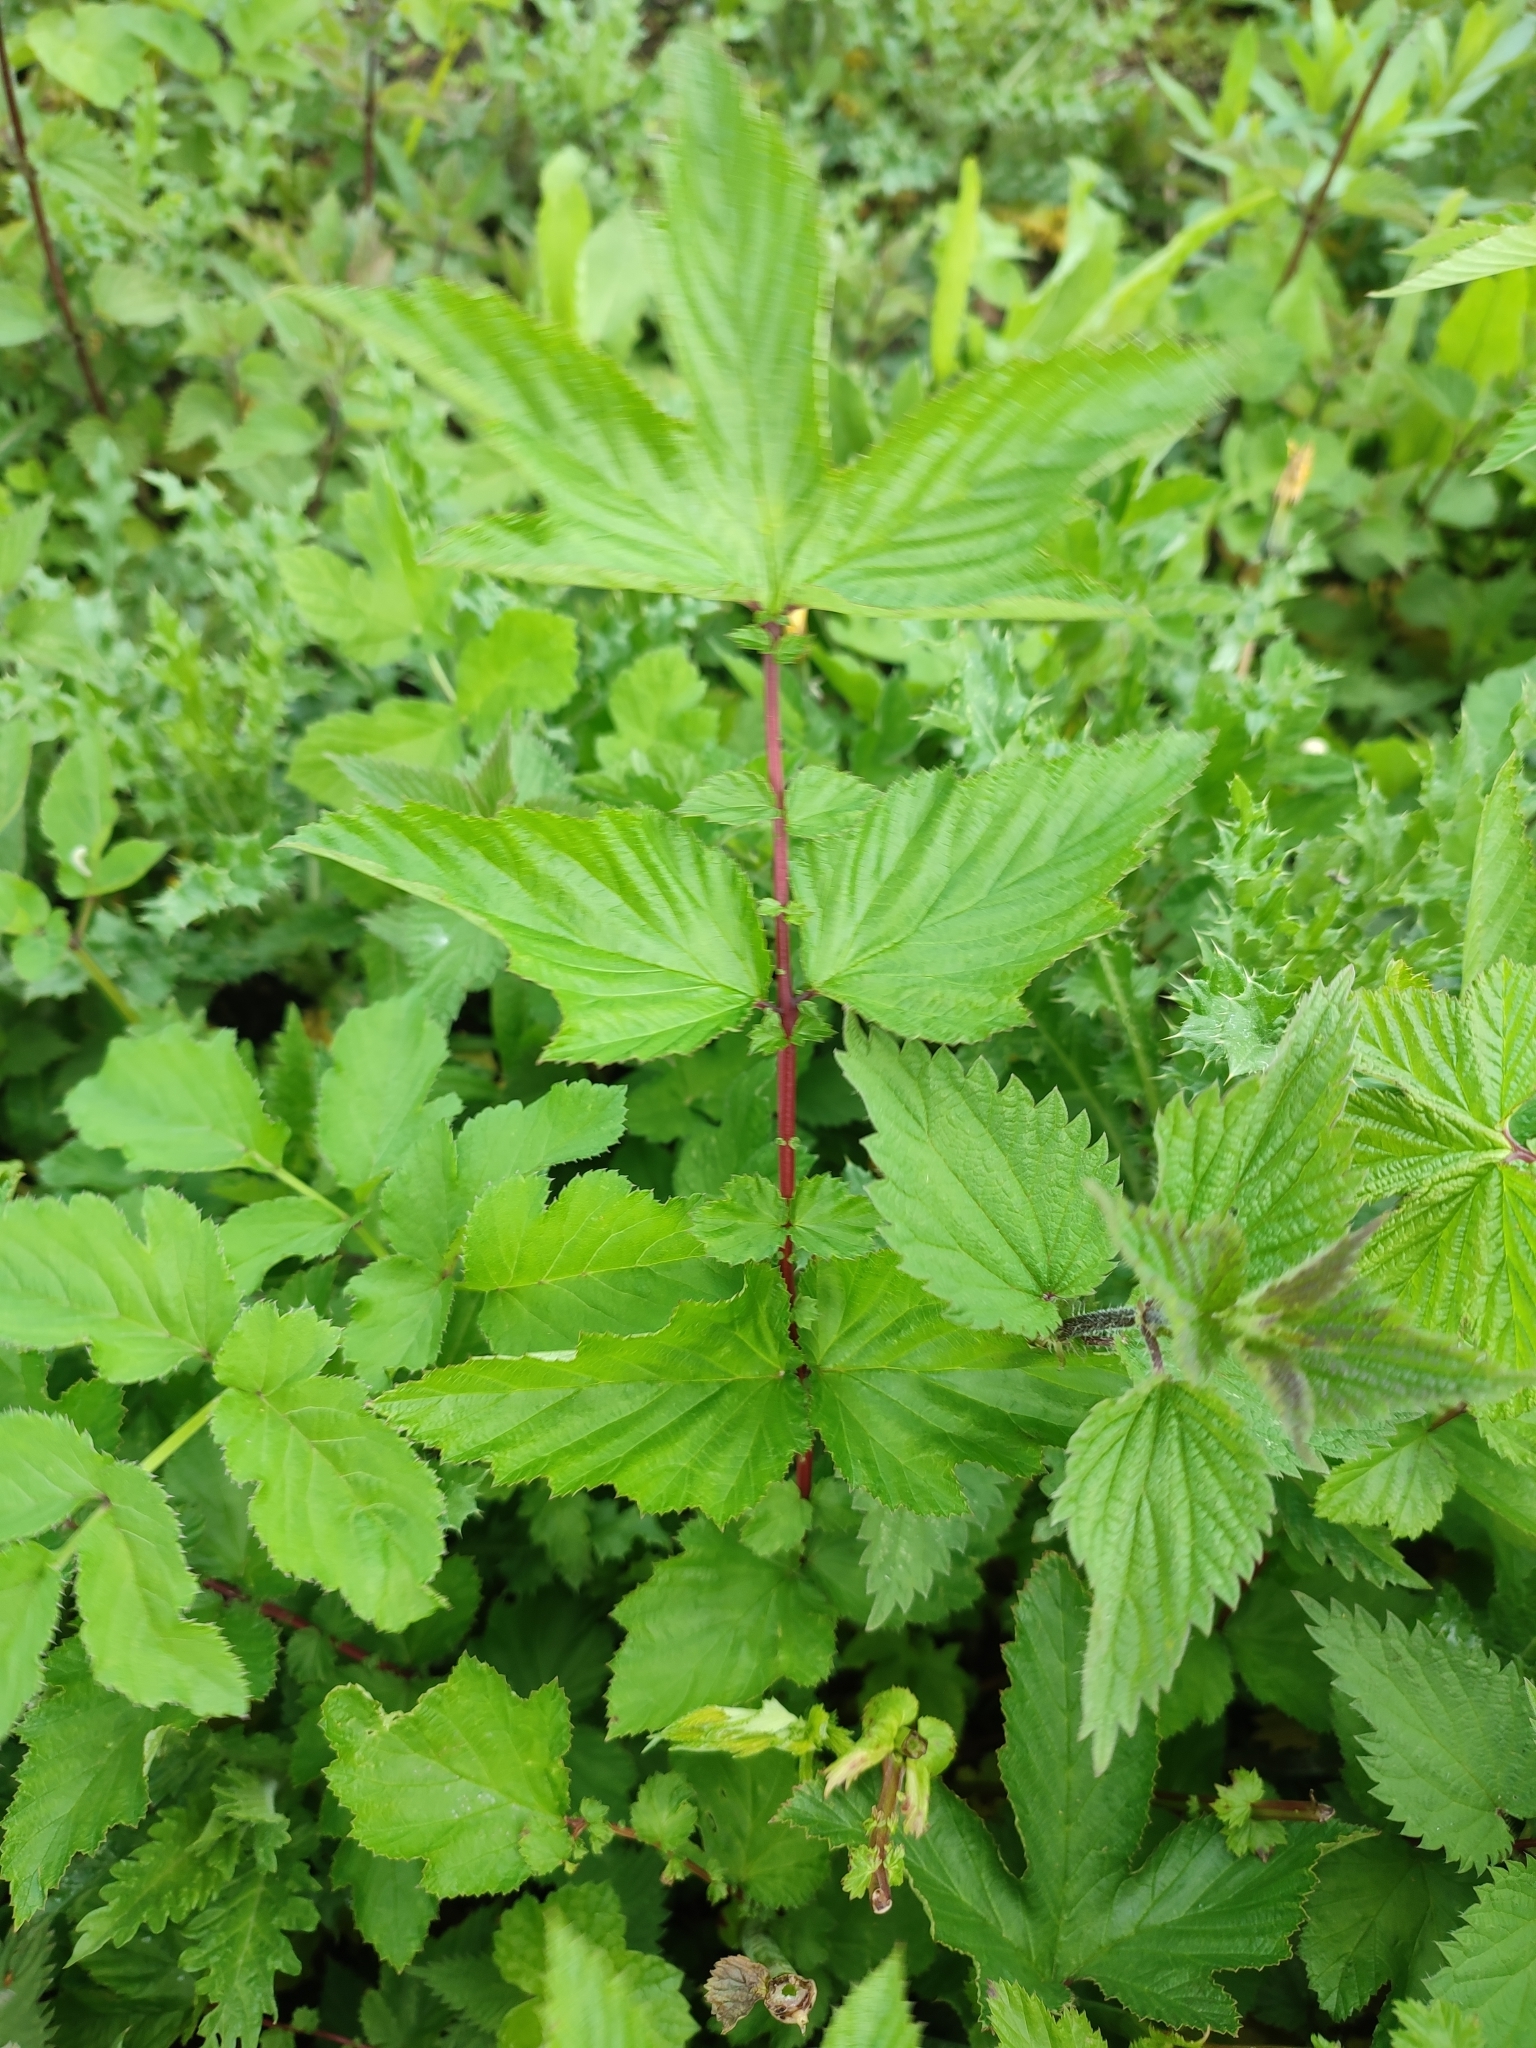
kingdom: Plantae
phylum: Tracheophyta
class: Magnoliopsida
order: Rosales
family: Rosaceae
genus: Filipendula
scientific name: Filipendula ulmaria
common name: Meadowsweet
